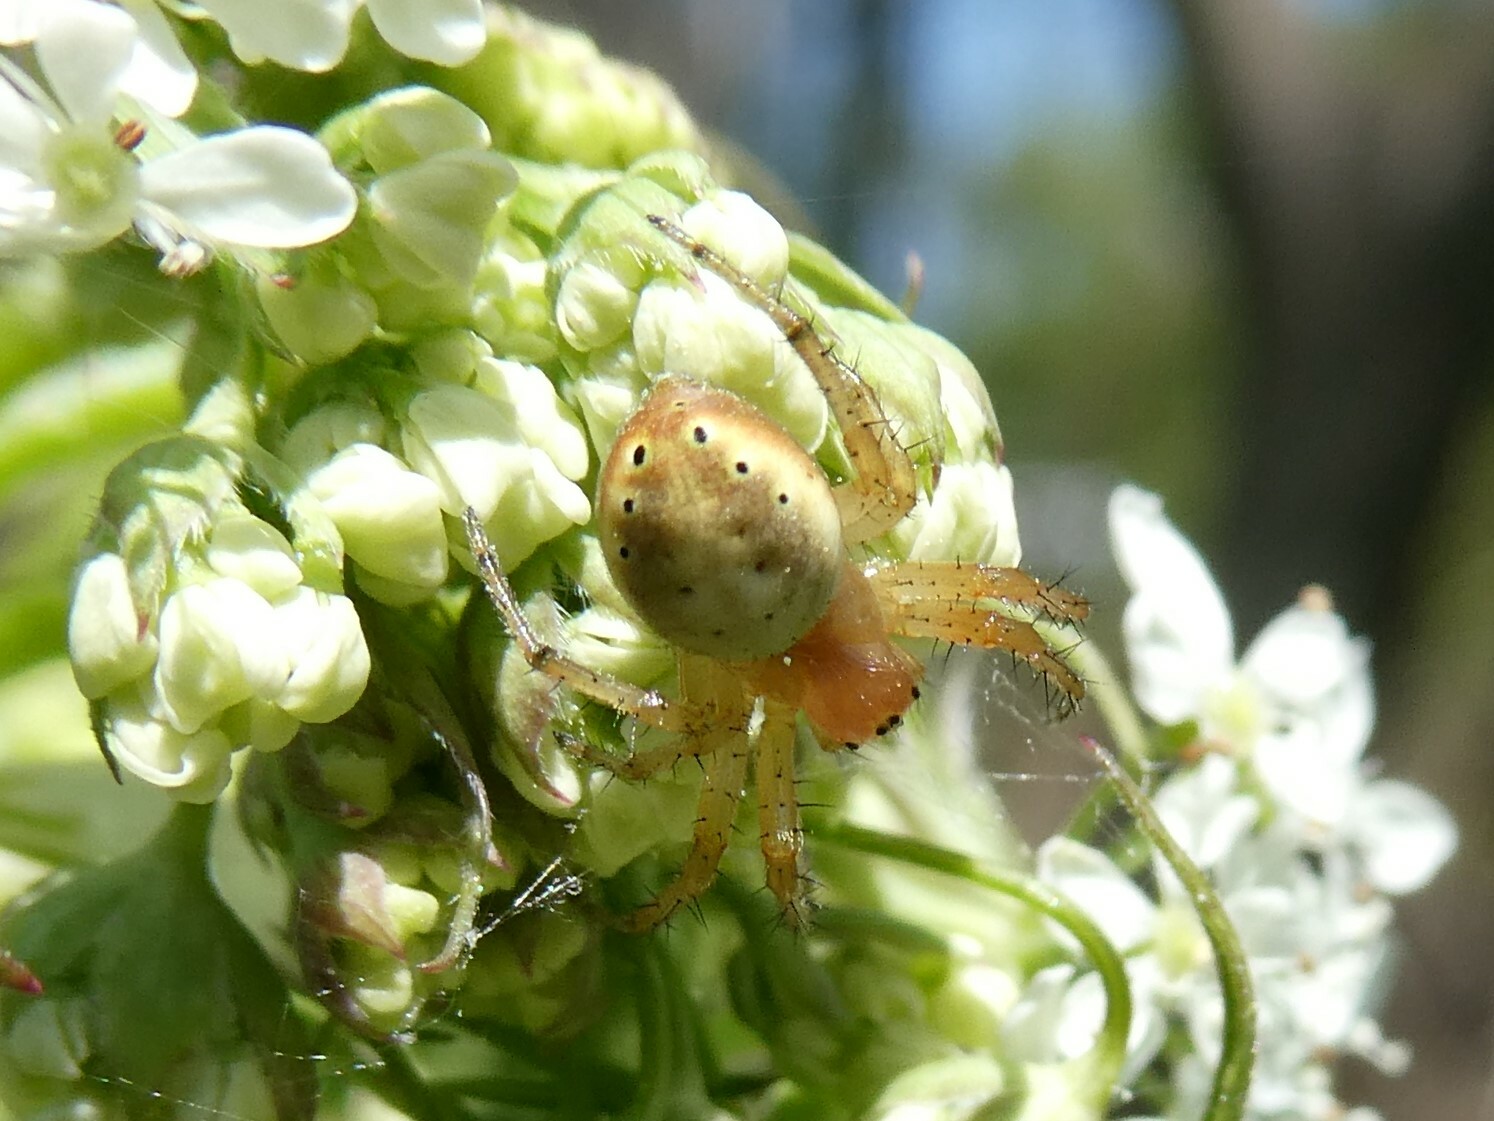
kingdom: Animalia
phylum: Arthropoda
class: Arachnida
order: Araneae
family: Araneidae
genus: Araniella
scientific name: Araniella displicata
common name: Sixspotted orb weaver
